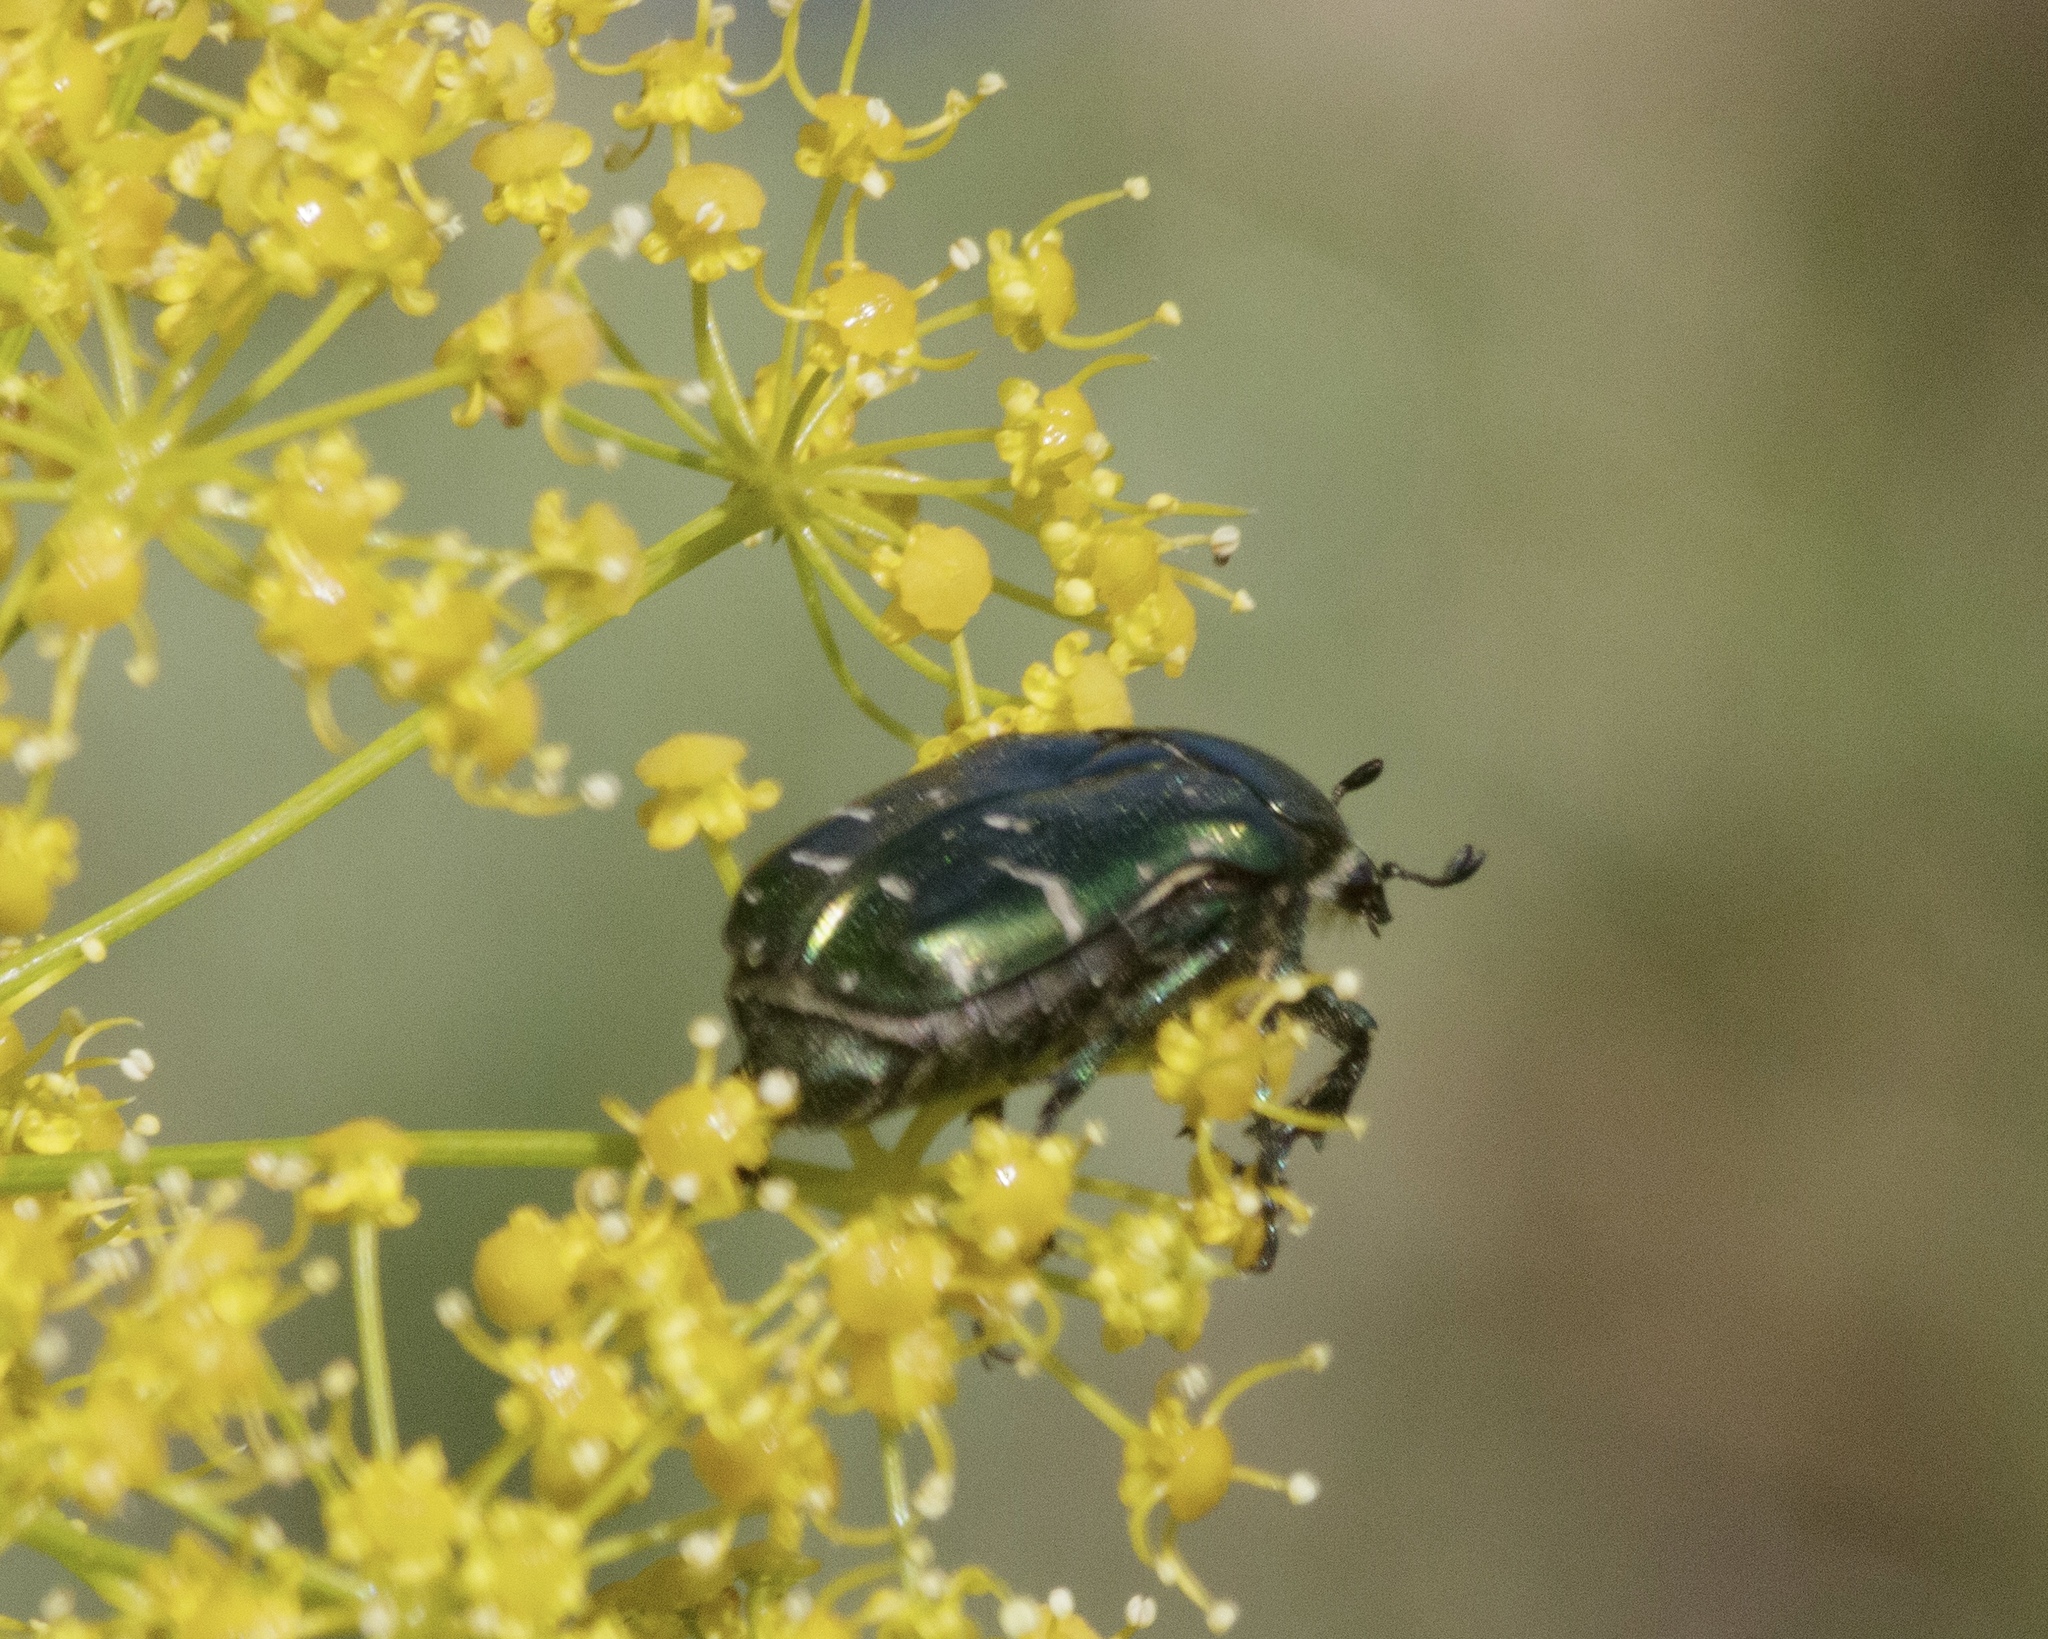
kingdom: Animalia
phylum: Arthropoda
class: Insecta
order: Coleoptera
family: Scarabaeidae
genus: Cetonia
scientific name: Cetonia aurata
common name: Rose chafer
